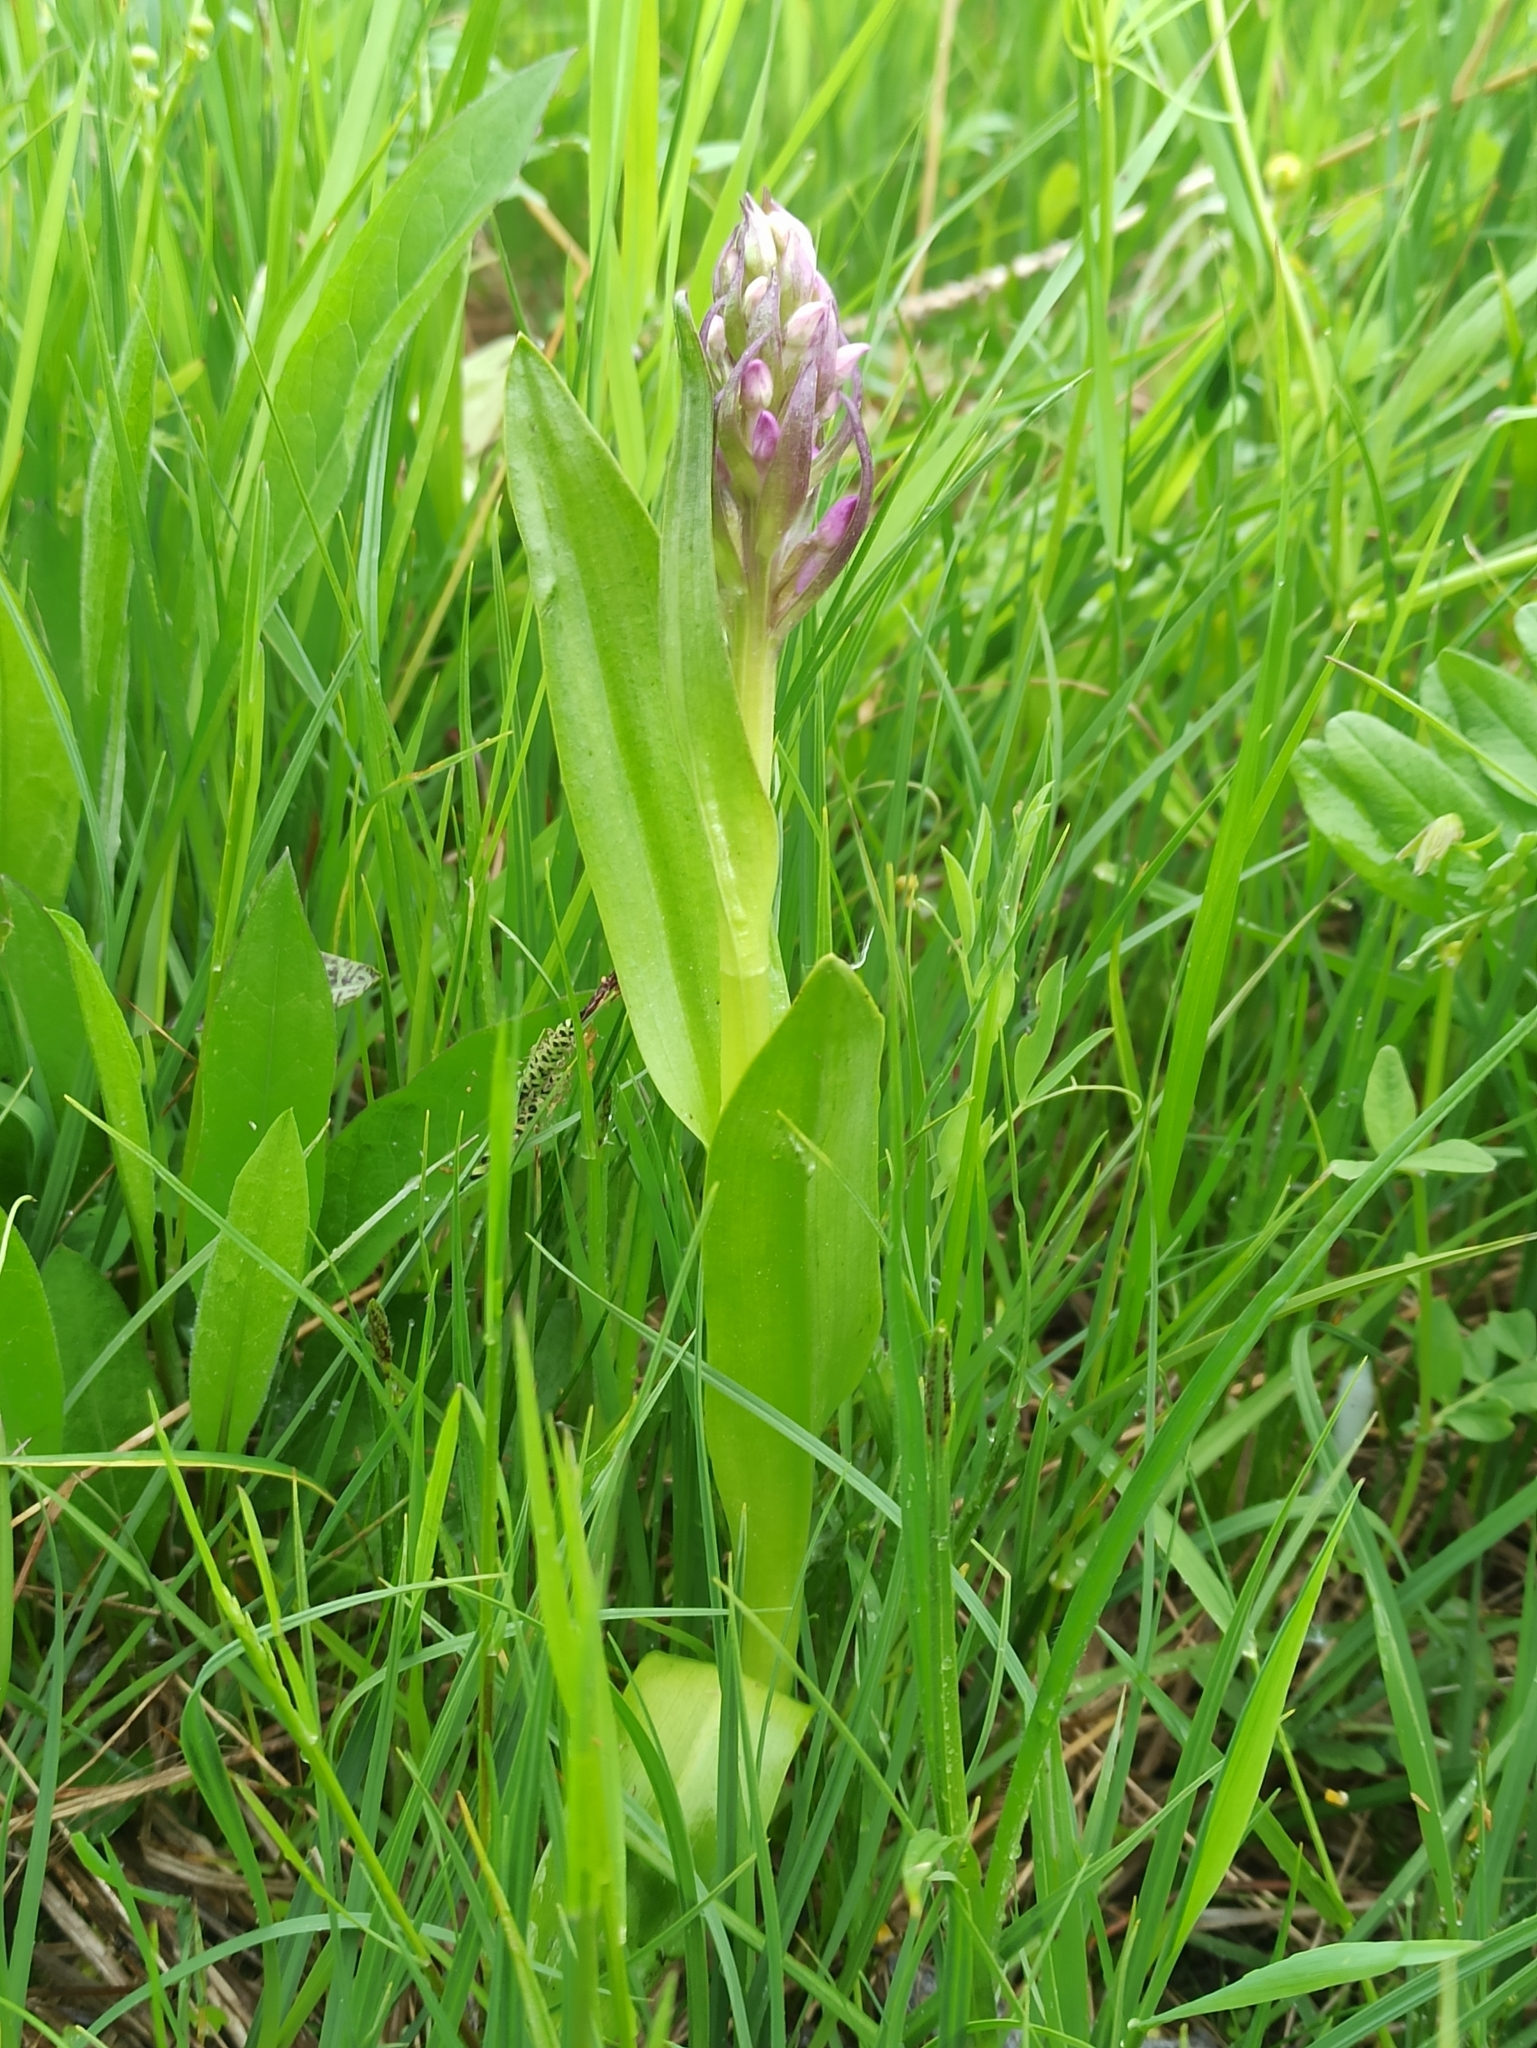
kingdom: Plantae
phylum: Tracheophyta
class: Liliopsida
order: Asparagales
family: Orchidaceae
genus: Dactylorhiza
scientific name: Dactylorhiza incarnata
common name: Early marsh-orchid
